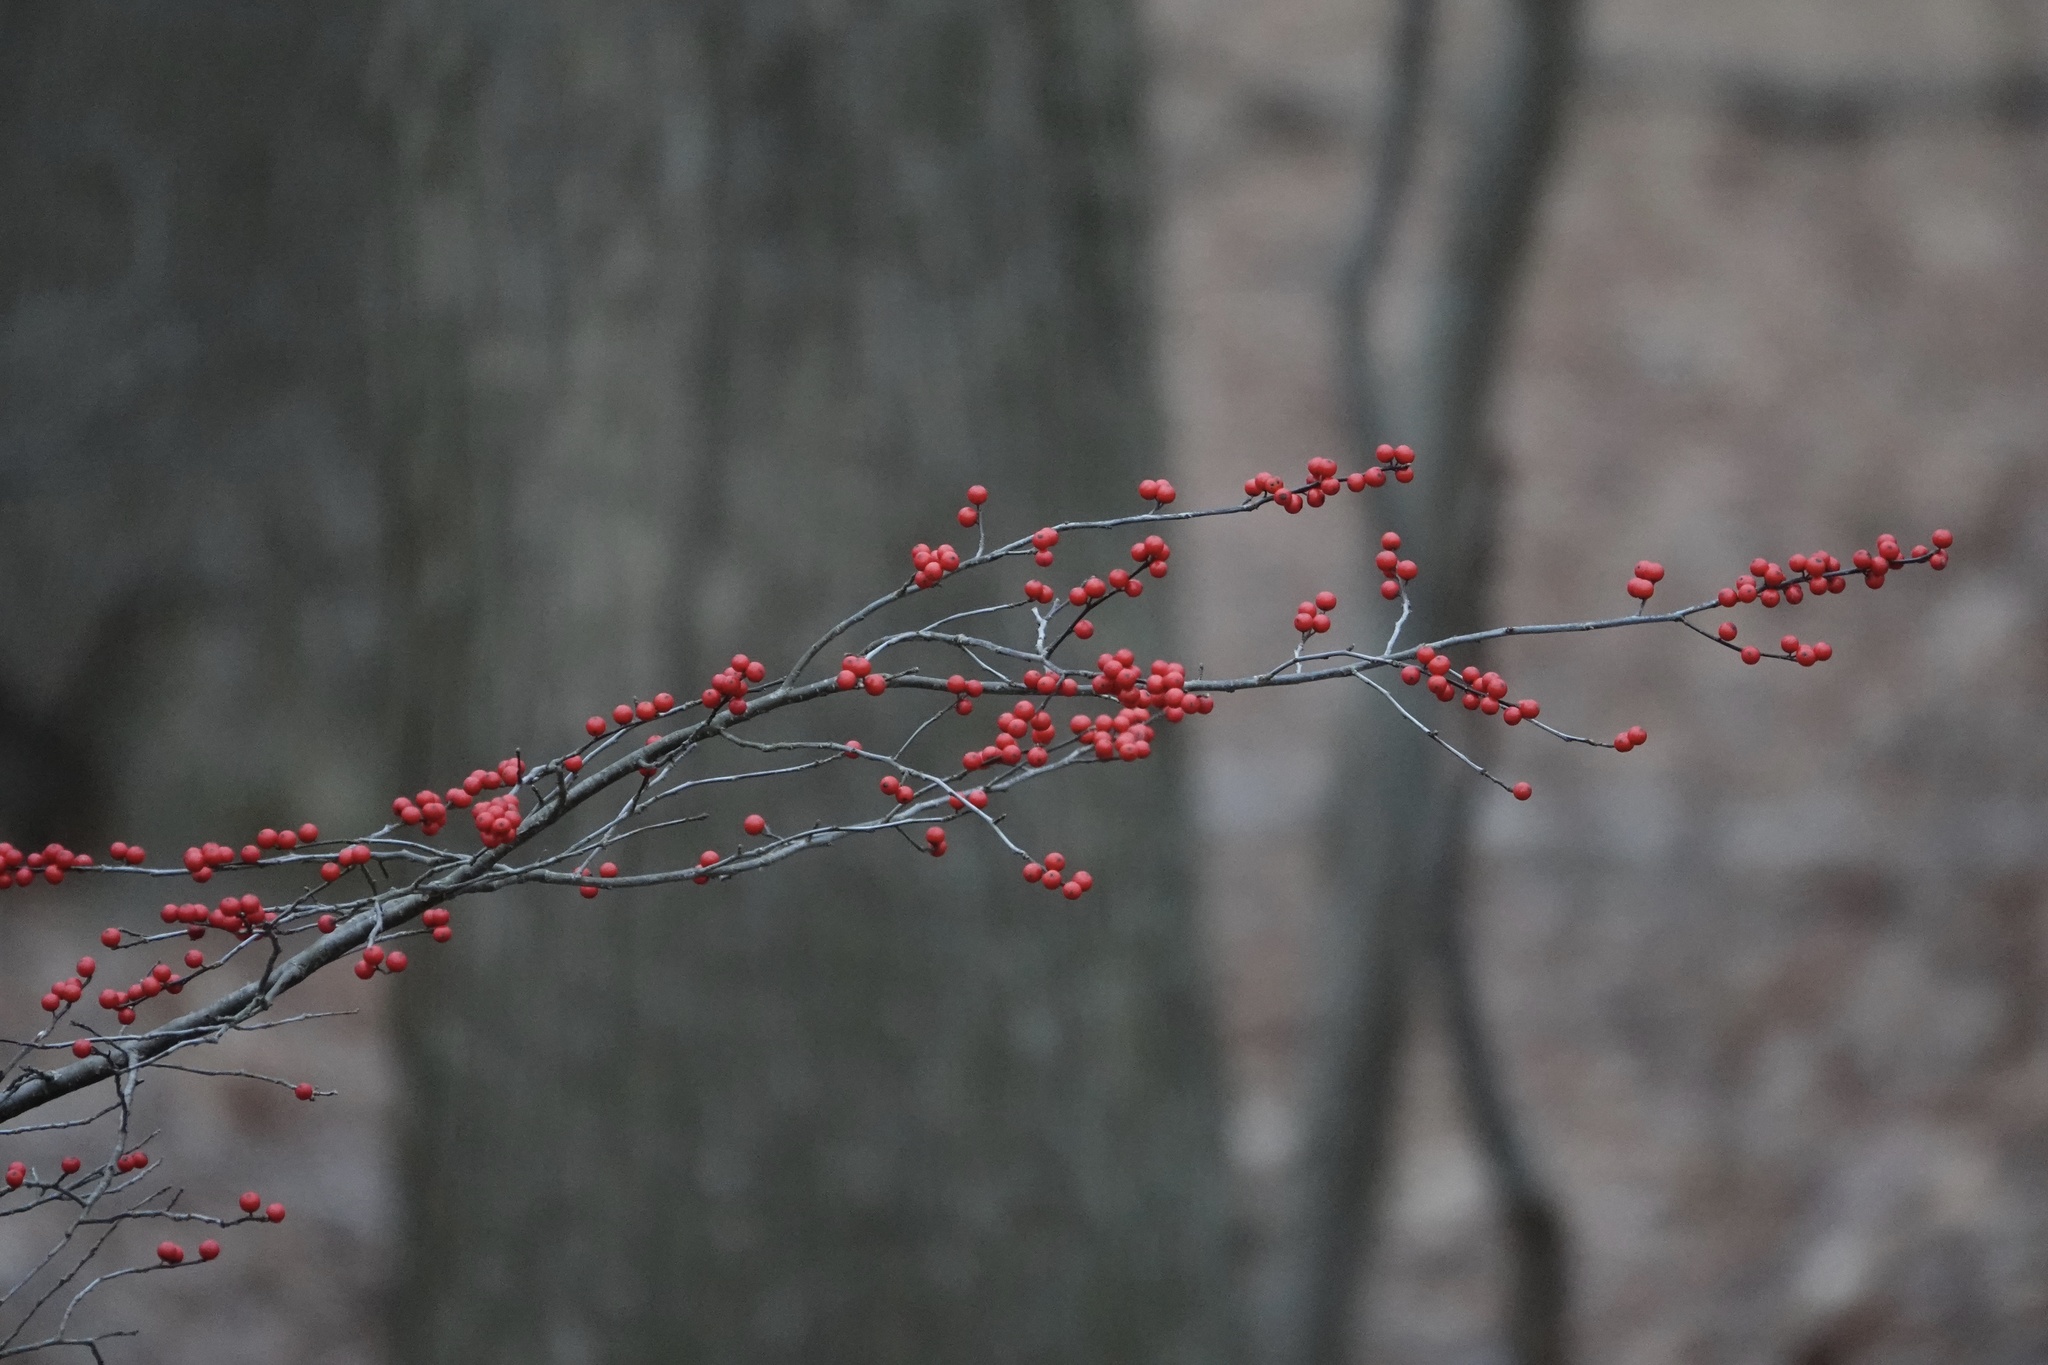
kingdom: Plantae
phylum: Tracheophyta
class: Magnoliopsida
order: Aquifoliales
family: Aquifoliaceae
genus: Ilex
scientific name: Ilex verticillata
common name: Virginia winterberry
